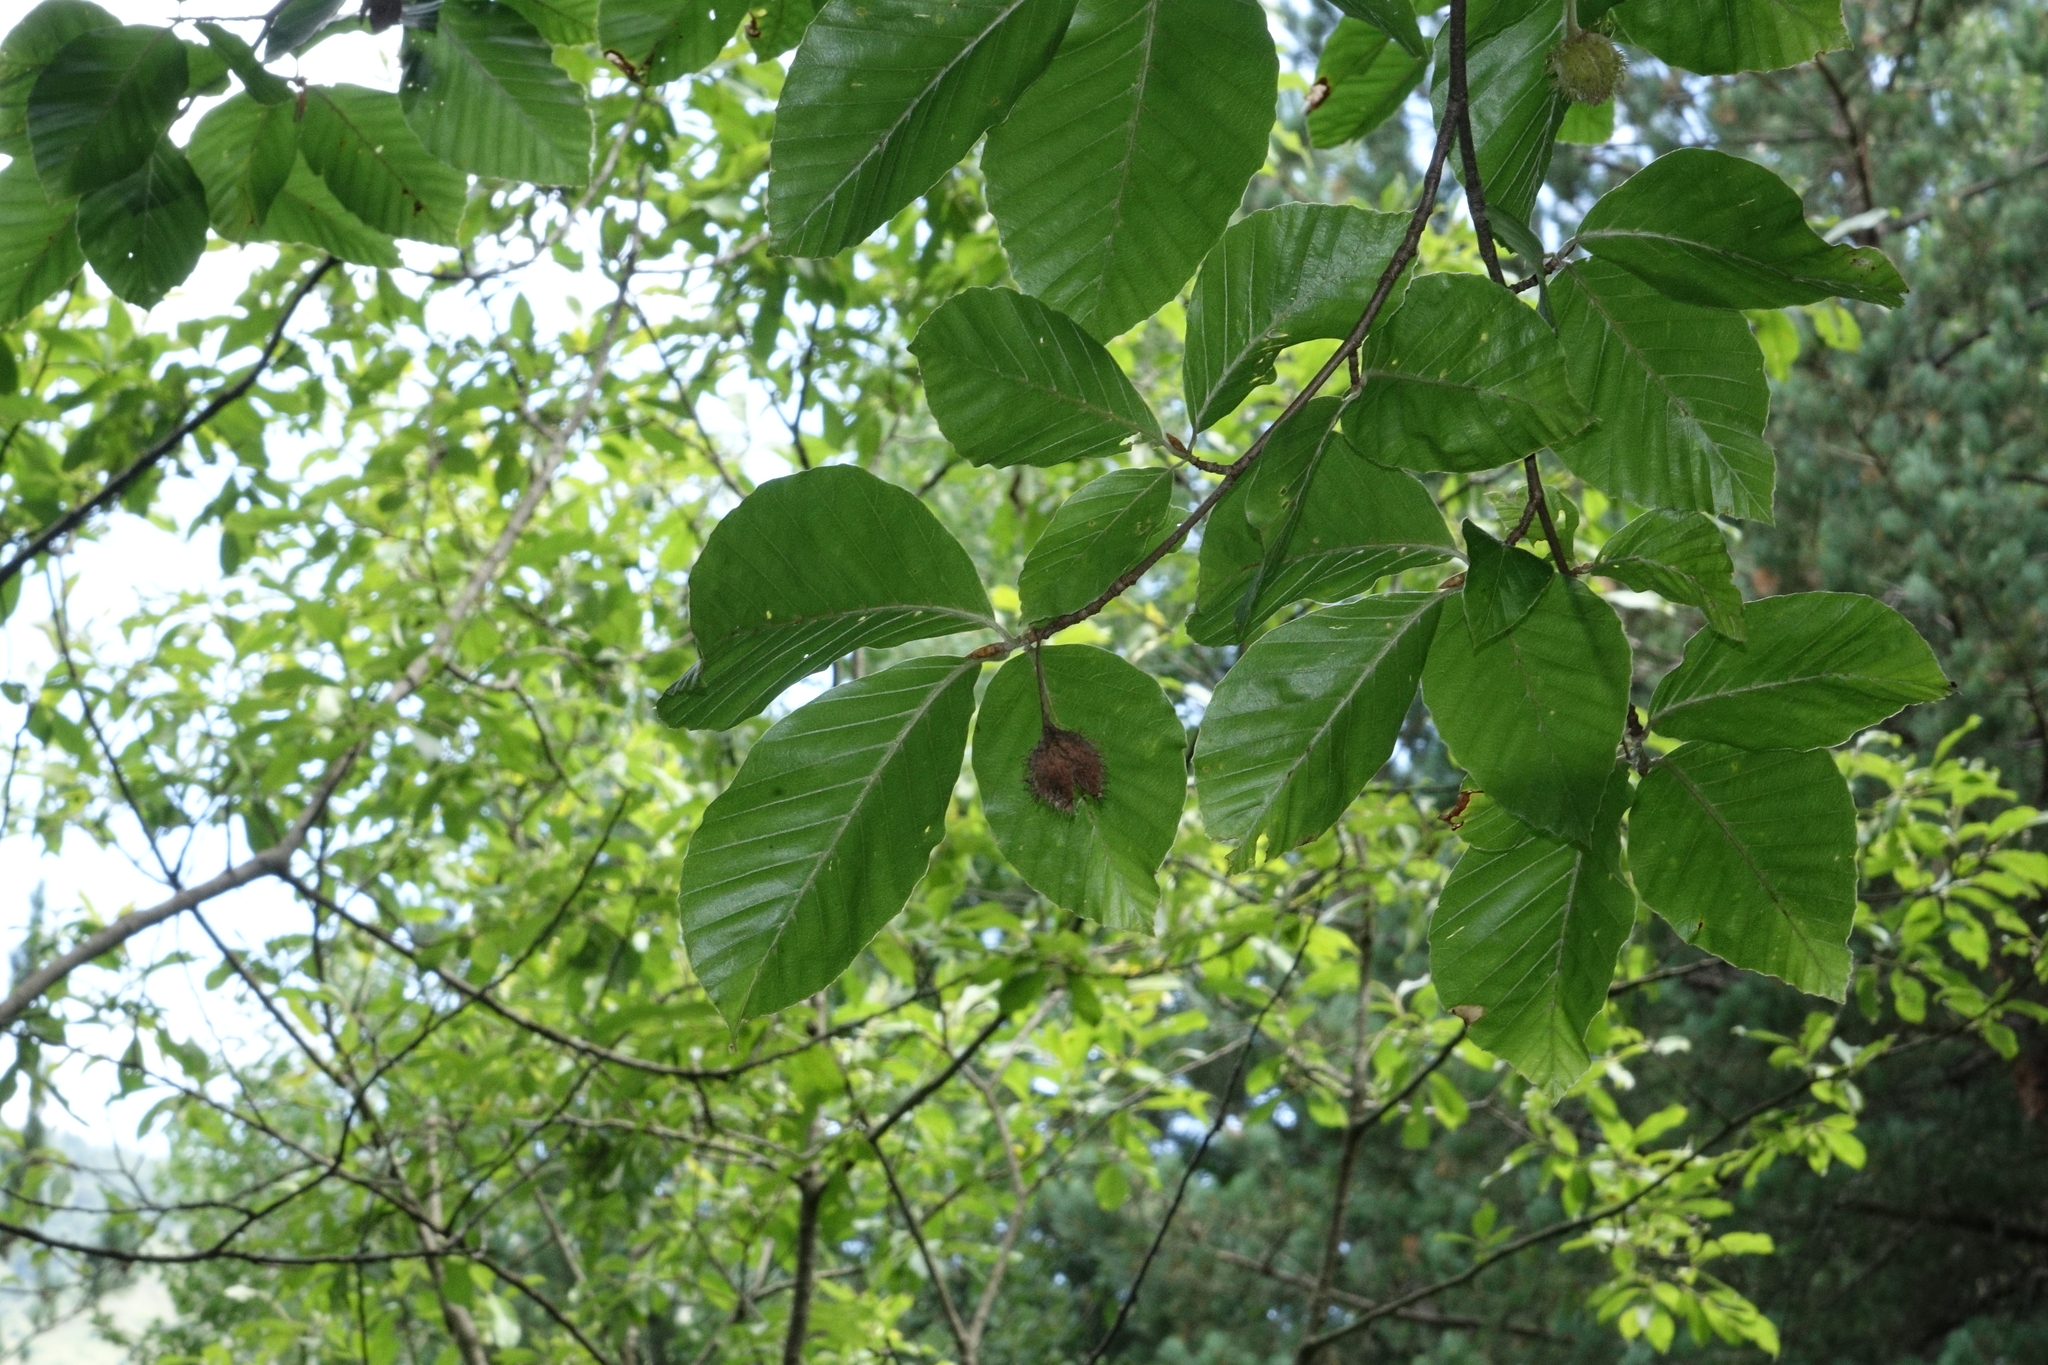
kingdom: Plantae
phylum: Tracheophyta
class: Magnoliopsida
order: Fagales
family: Fagaceae
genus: Fagus
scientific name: Fagus orientalis
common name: Oriental beech
